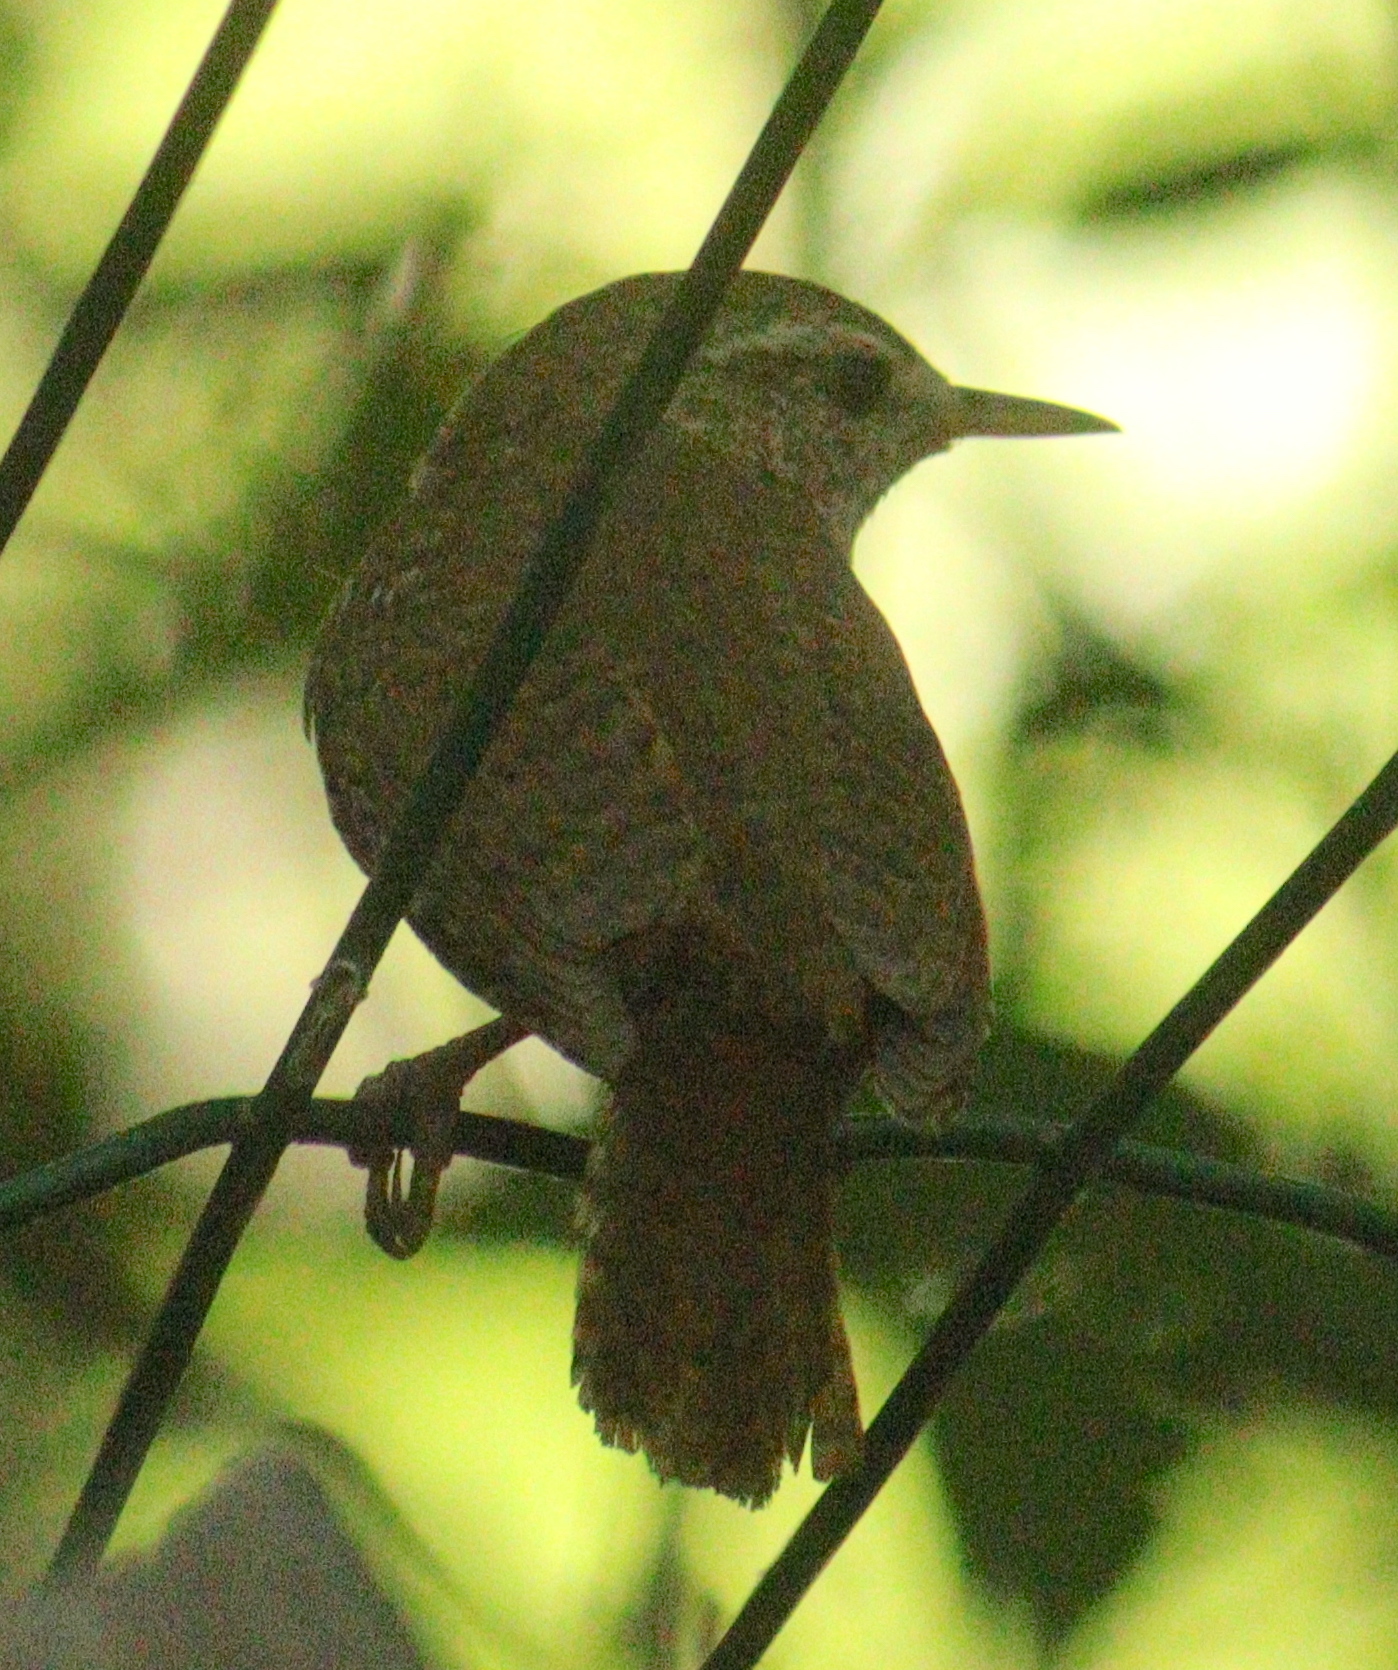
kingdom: Animalia
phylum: Chordata
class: Aves
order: Passeriformes
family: Troglodytidae
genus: Troglodytes
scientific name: Troglodytes troglodytes
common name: Eurasian wren
